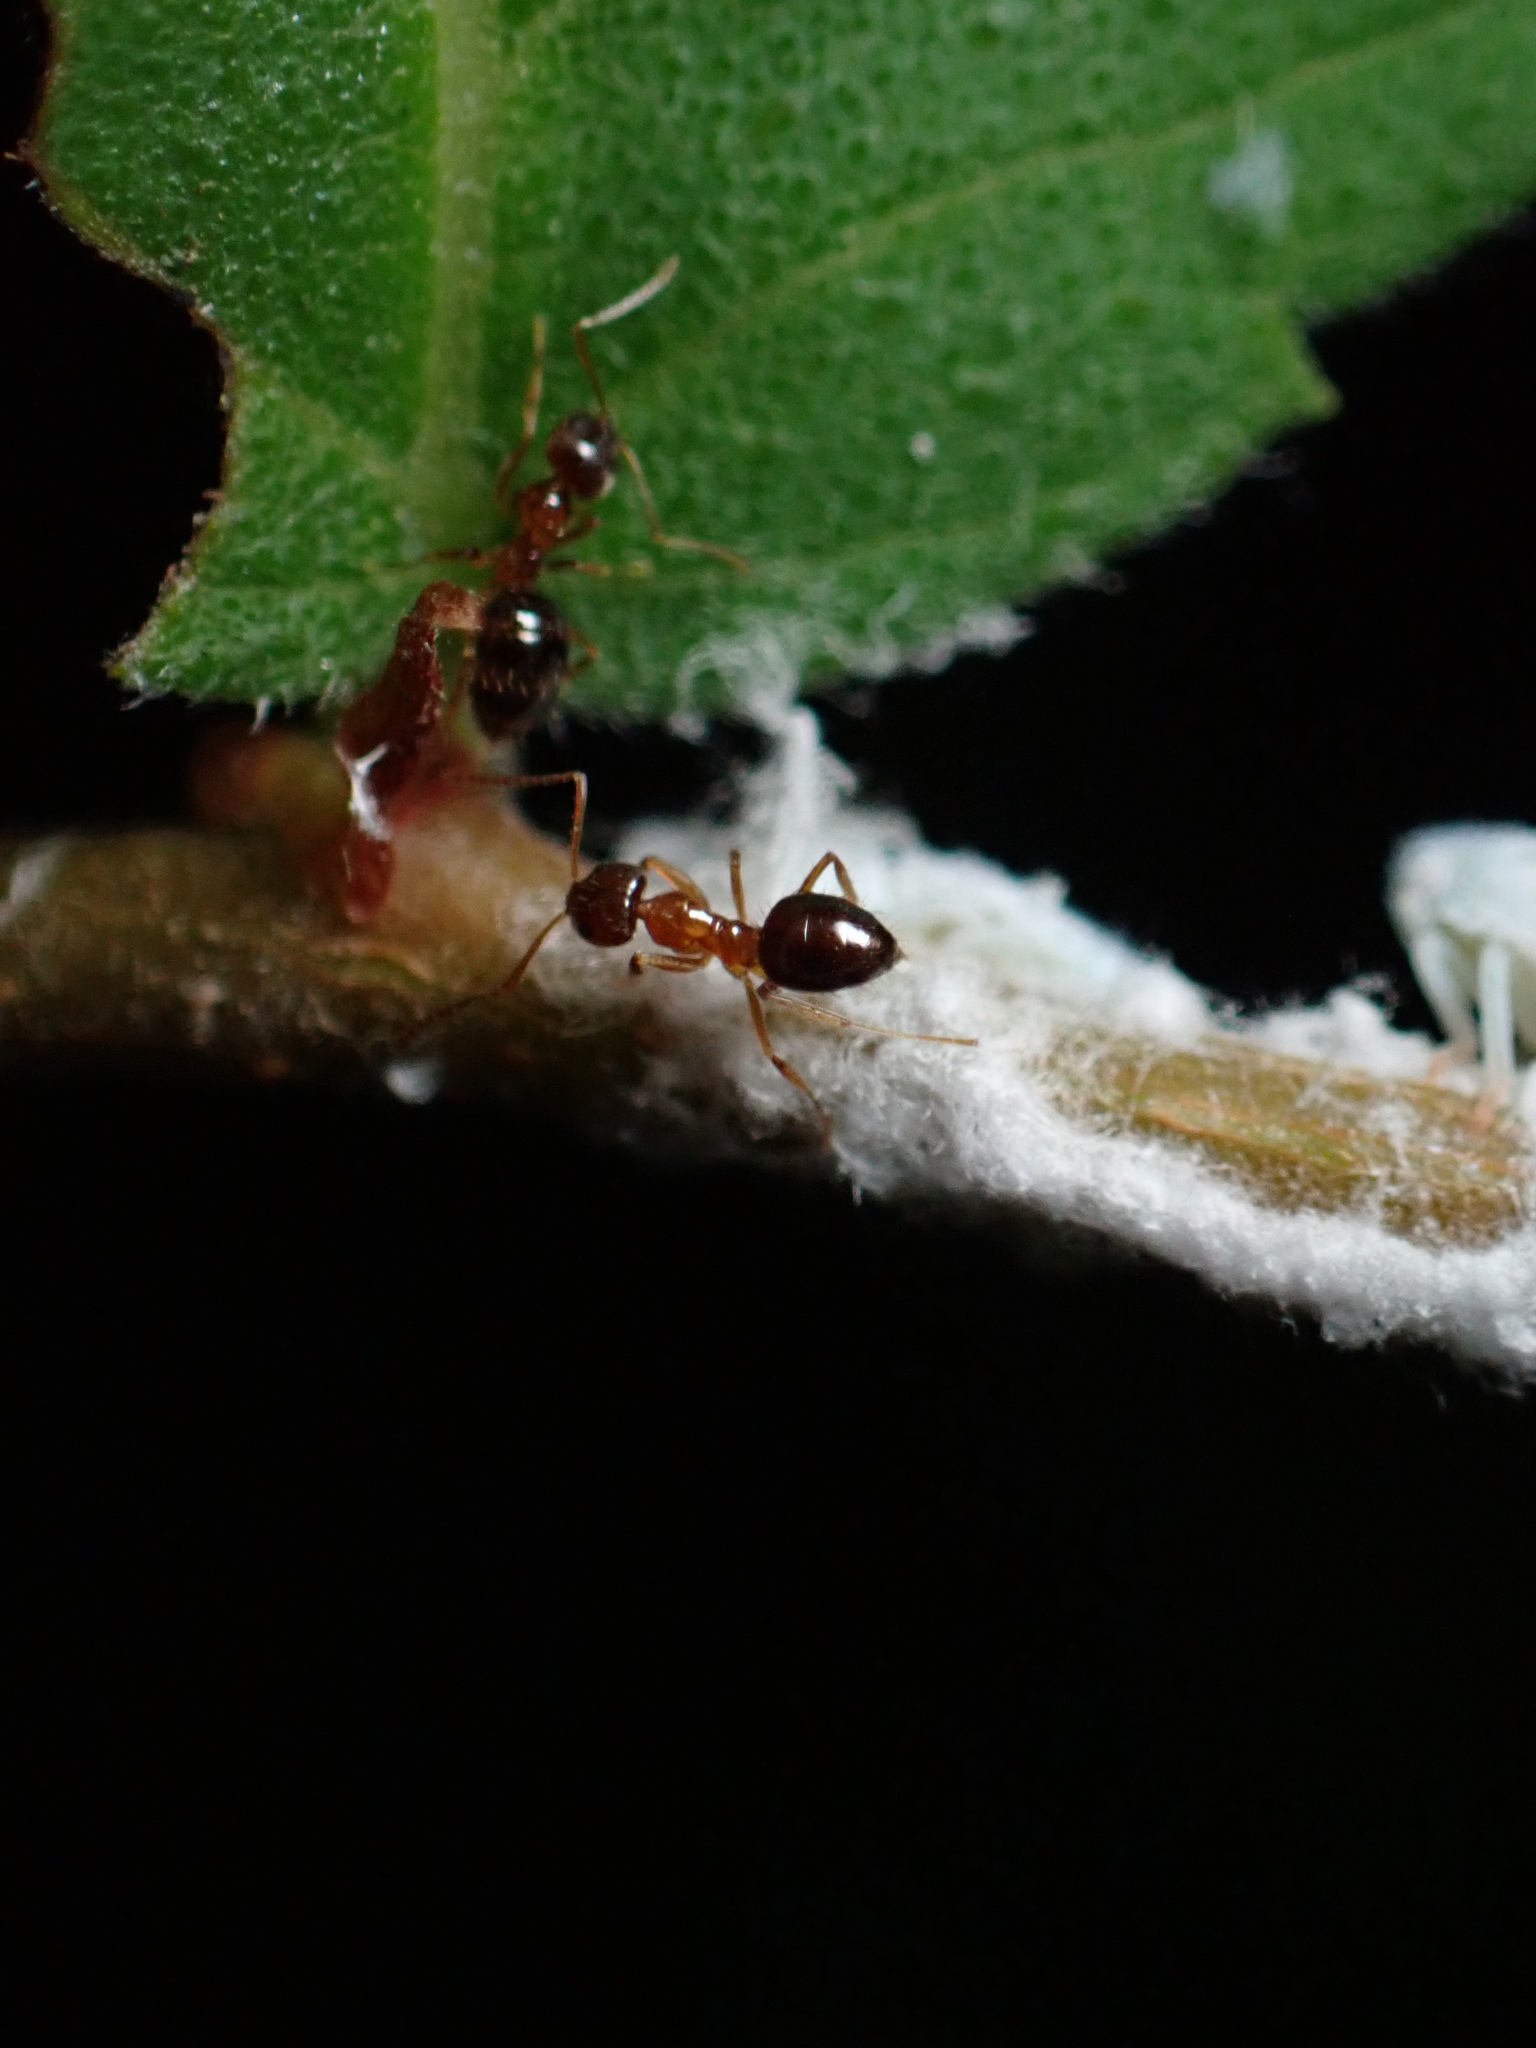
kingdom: Animalia
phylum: Arthropoda
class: Insecta
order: Hymenoptera
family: Formicidae
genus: Paratrechina
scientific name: Paratrechina flavipes
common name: Eastern asian formicine ant
